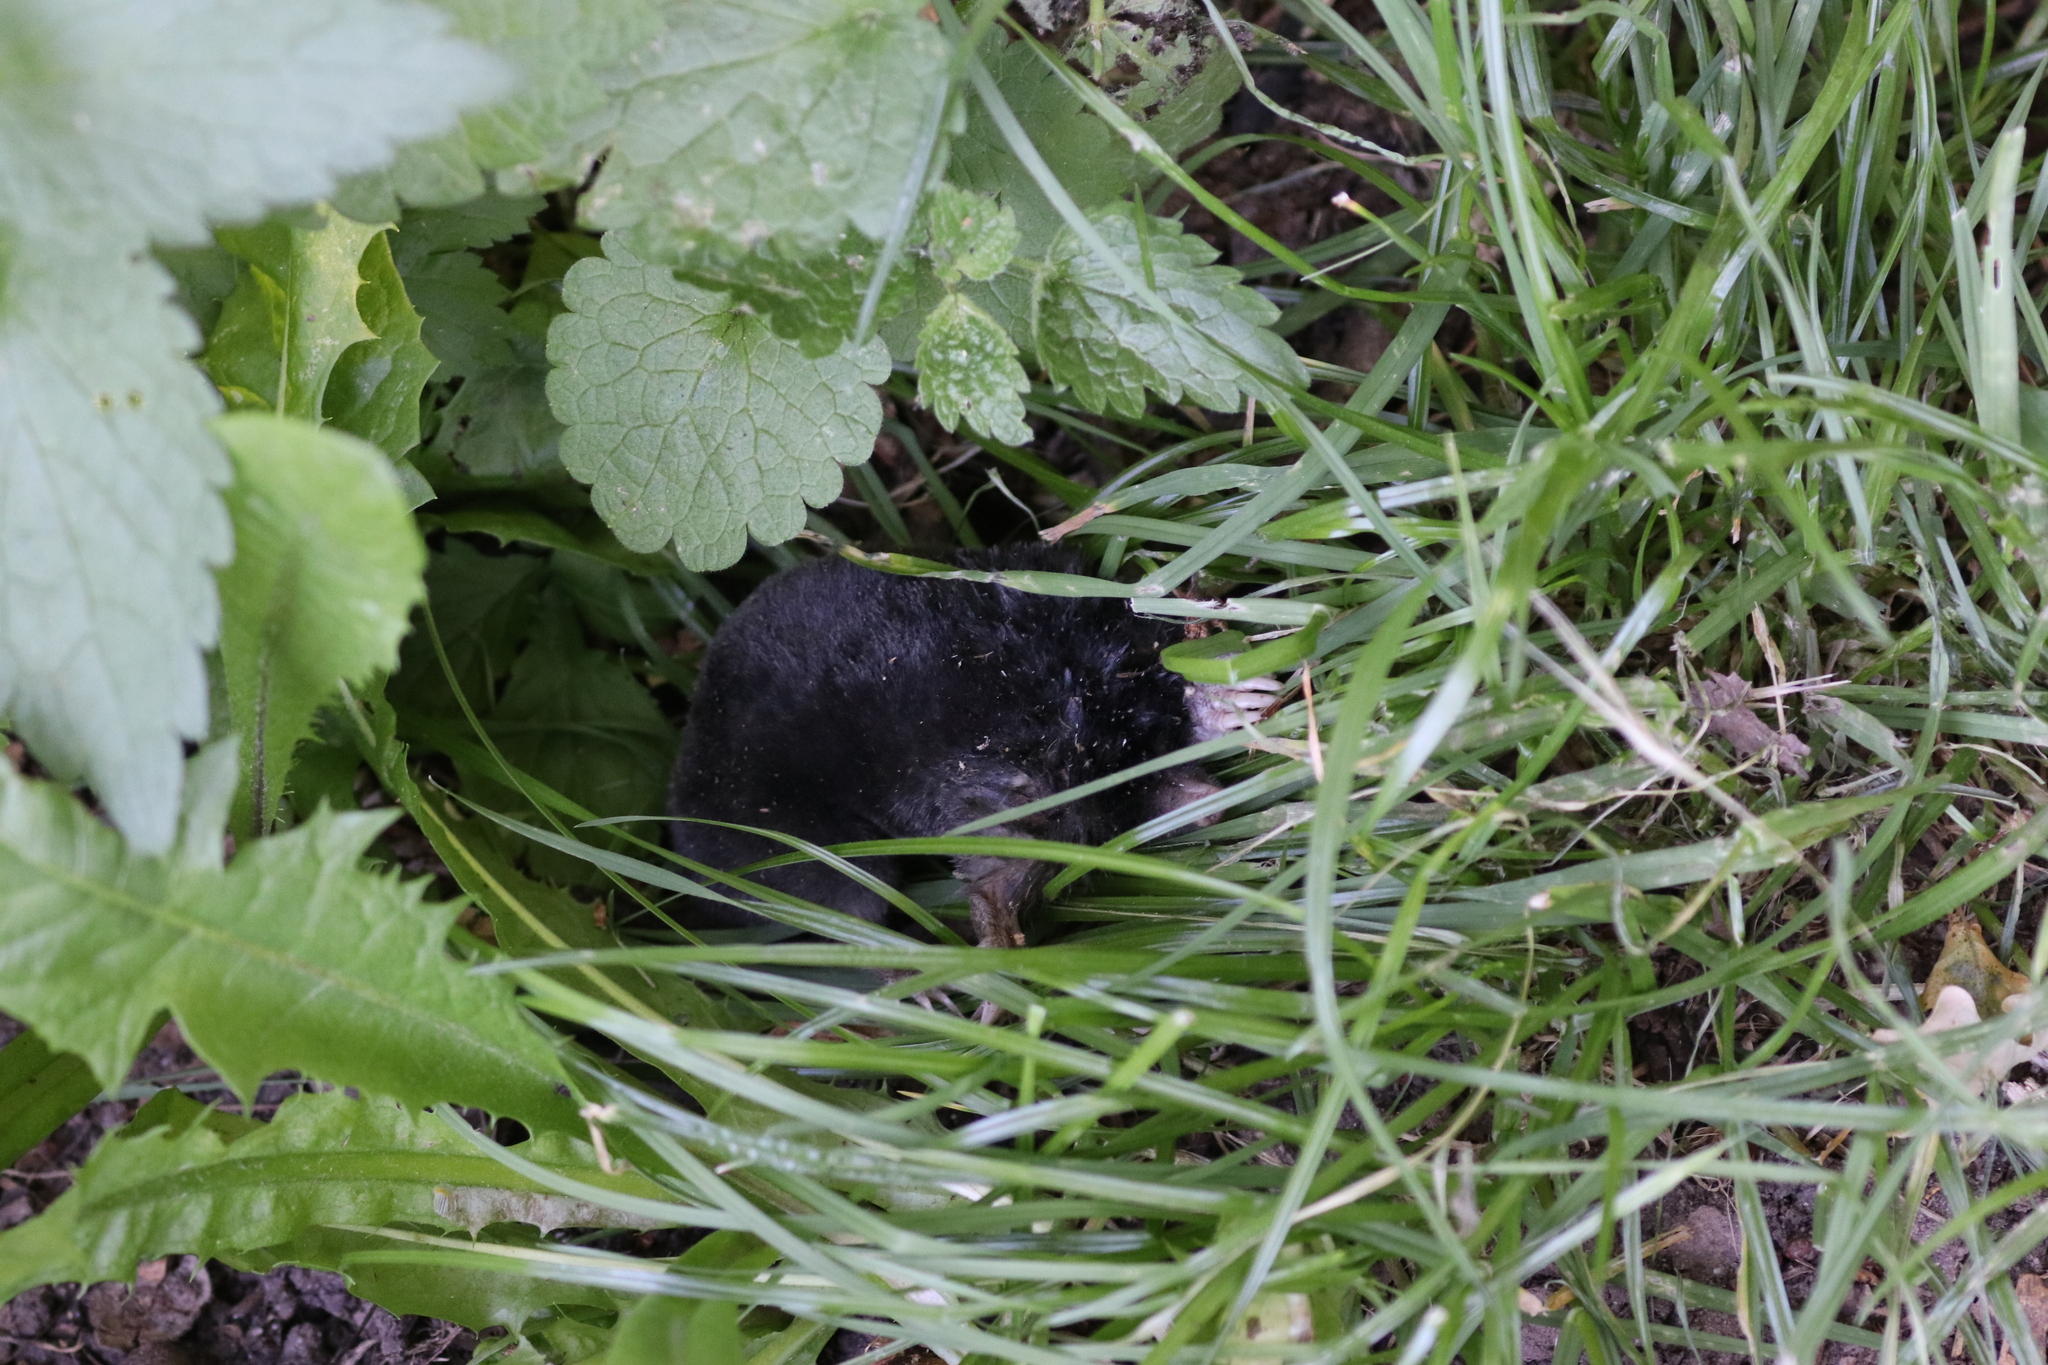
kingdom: Animalia
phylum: Chordata
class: Mammalia
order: Soricomorpha
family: Talpidae
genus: Talpa
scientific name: Talpa europaea
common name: European mole
